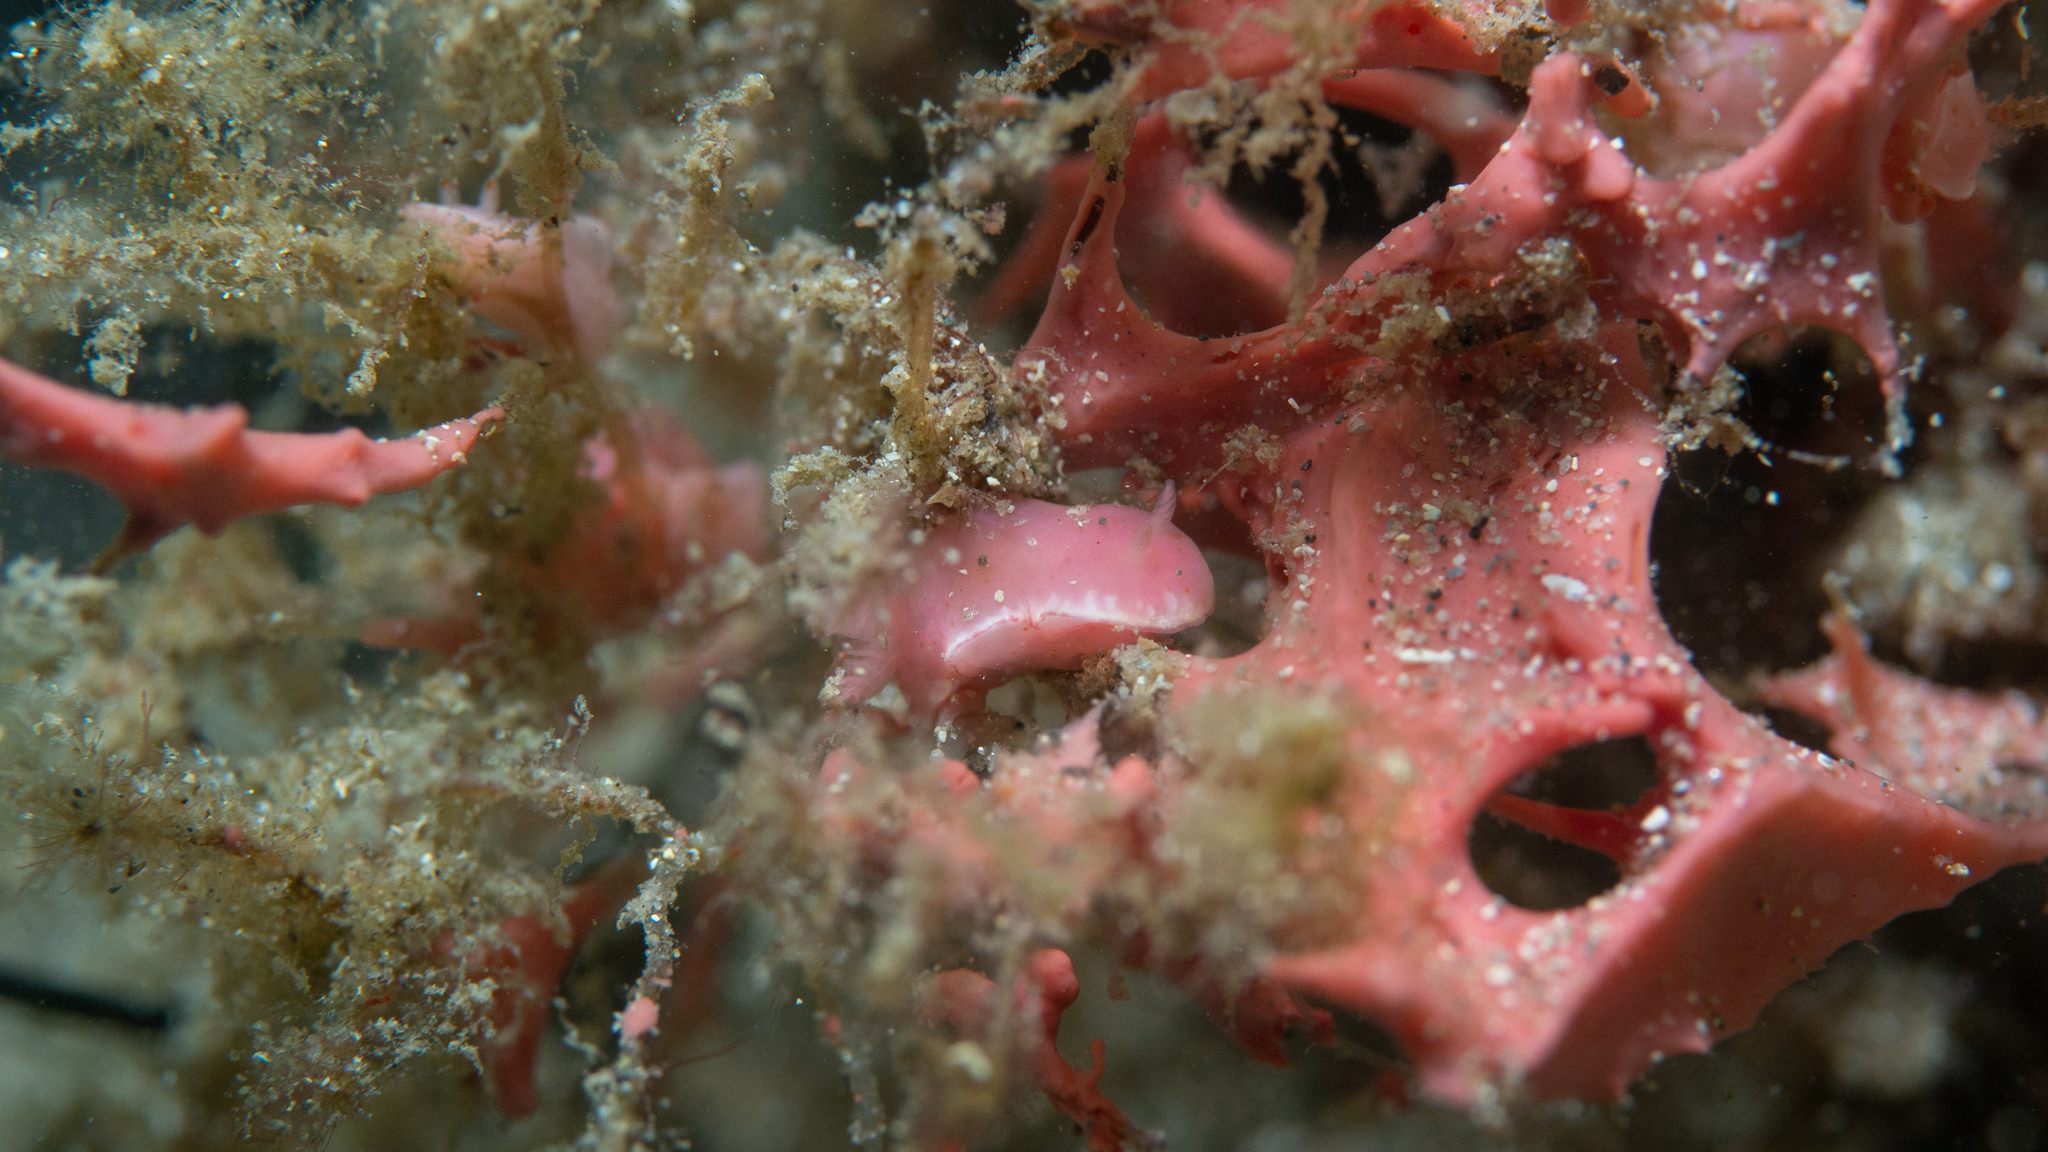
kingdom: Animalia
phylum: Mollusca
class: Gastropoda
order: Nudibranchia
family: Chromodorididae
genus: Verconia
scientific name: Verconia haliclona
